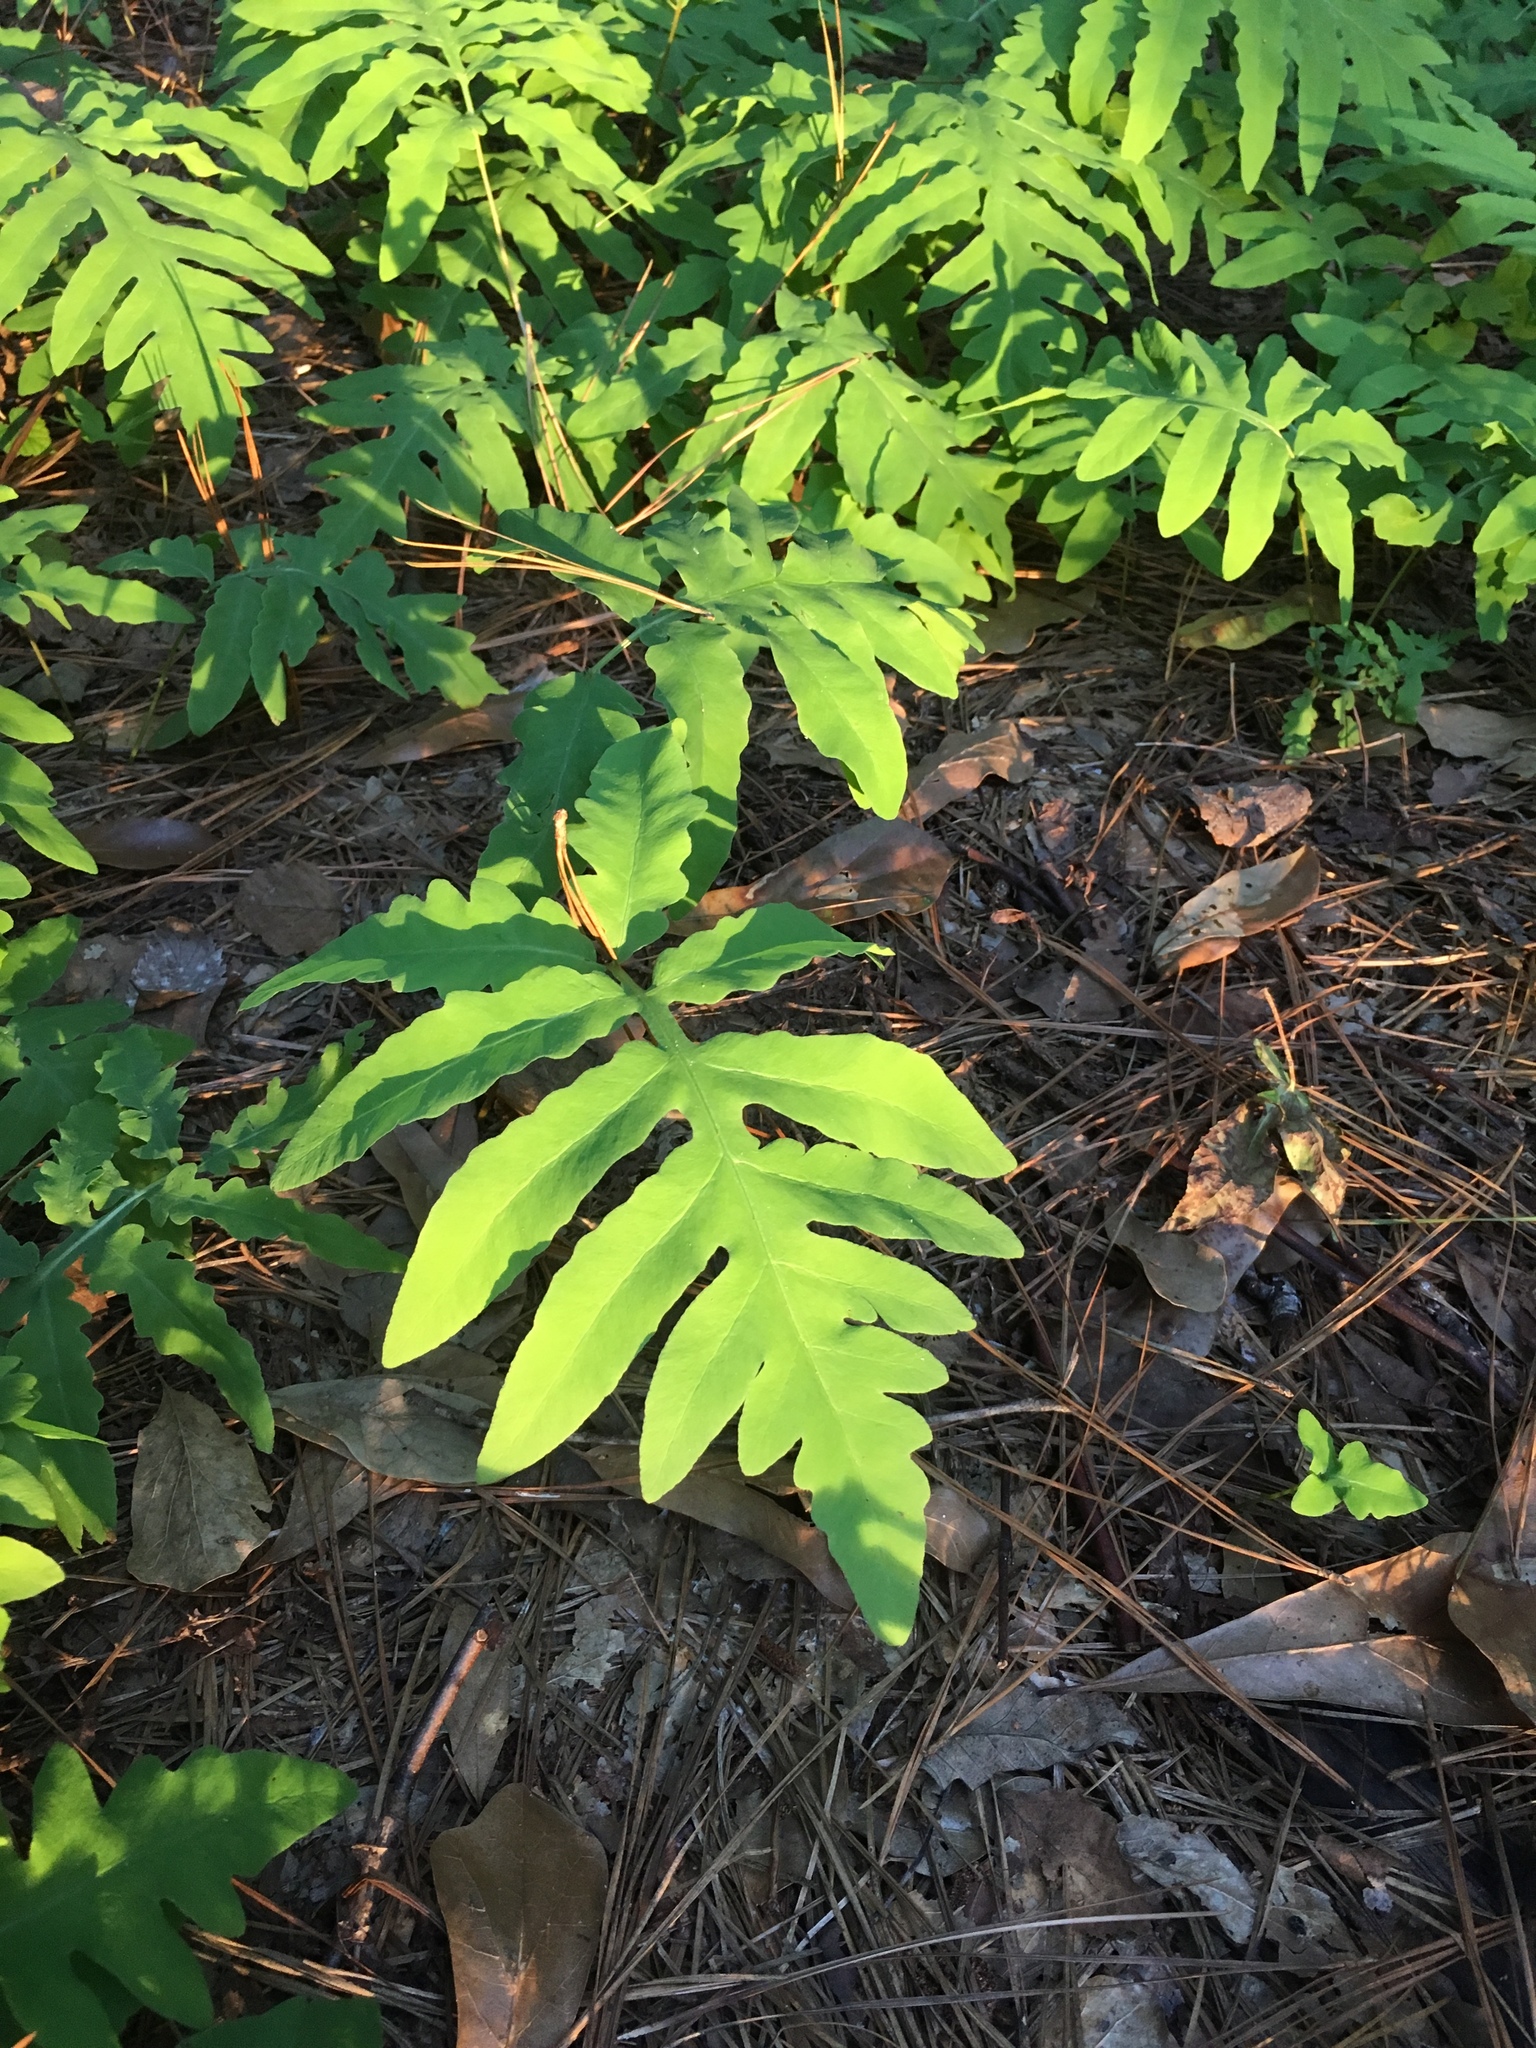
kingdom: Plantae
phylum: Tracheophyta
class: Polypodiopsida
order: Polypodiales
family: Onocleaceae
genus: Onoclea
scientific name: Onoclea sensibilis
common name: Sensitive fern
